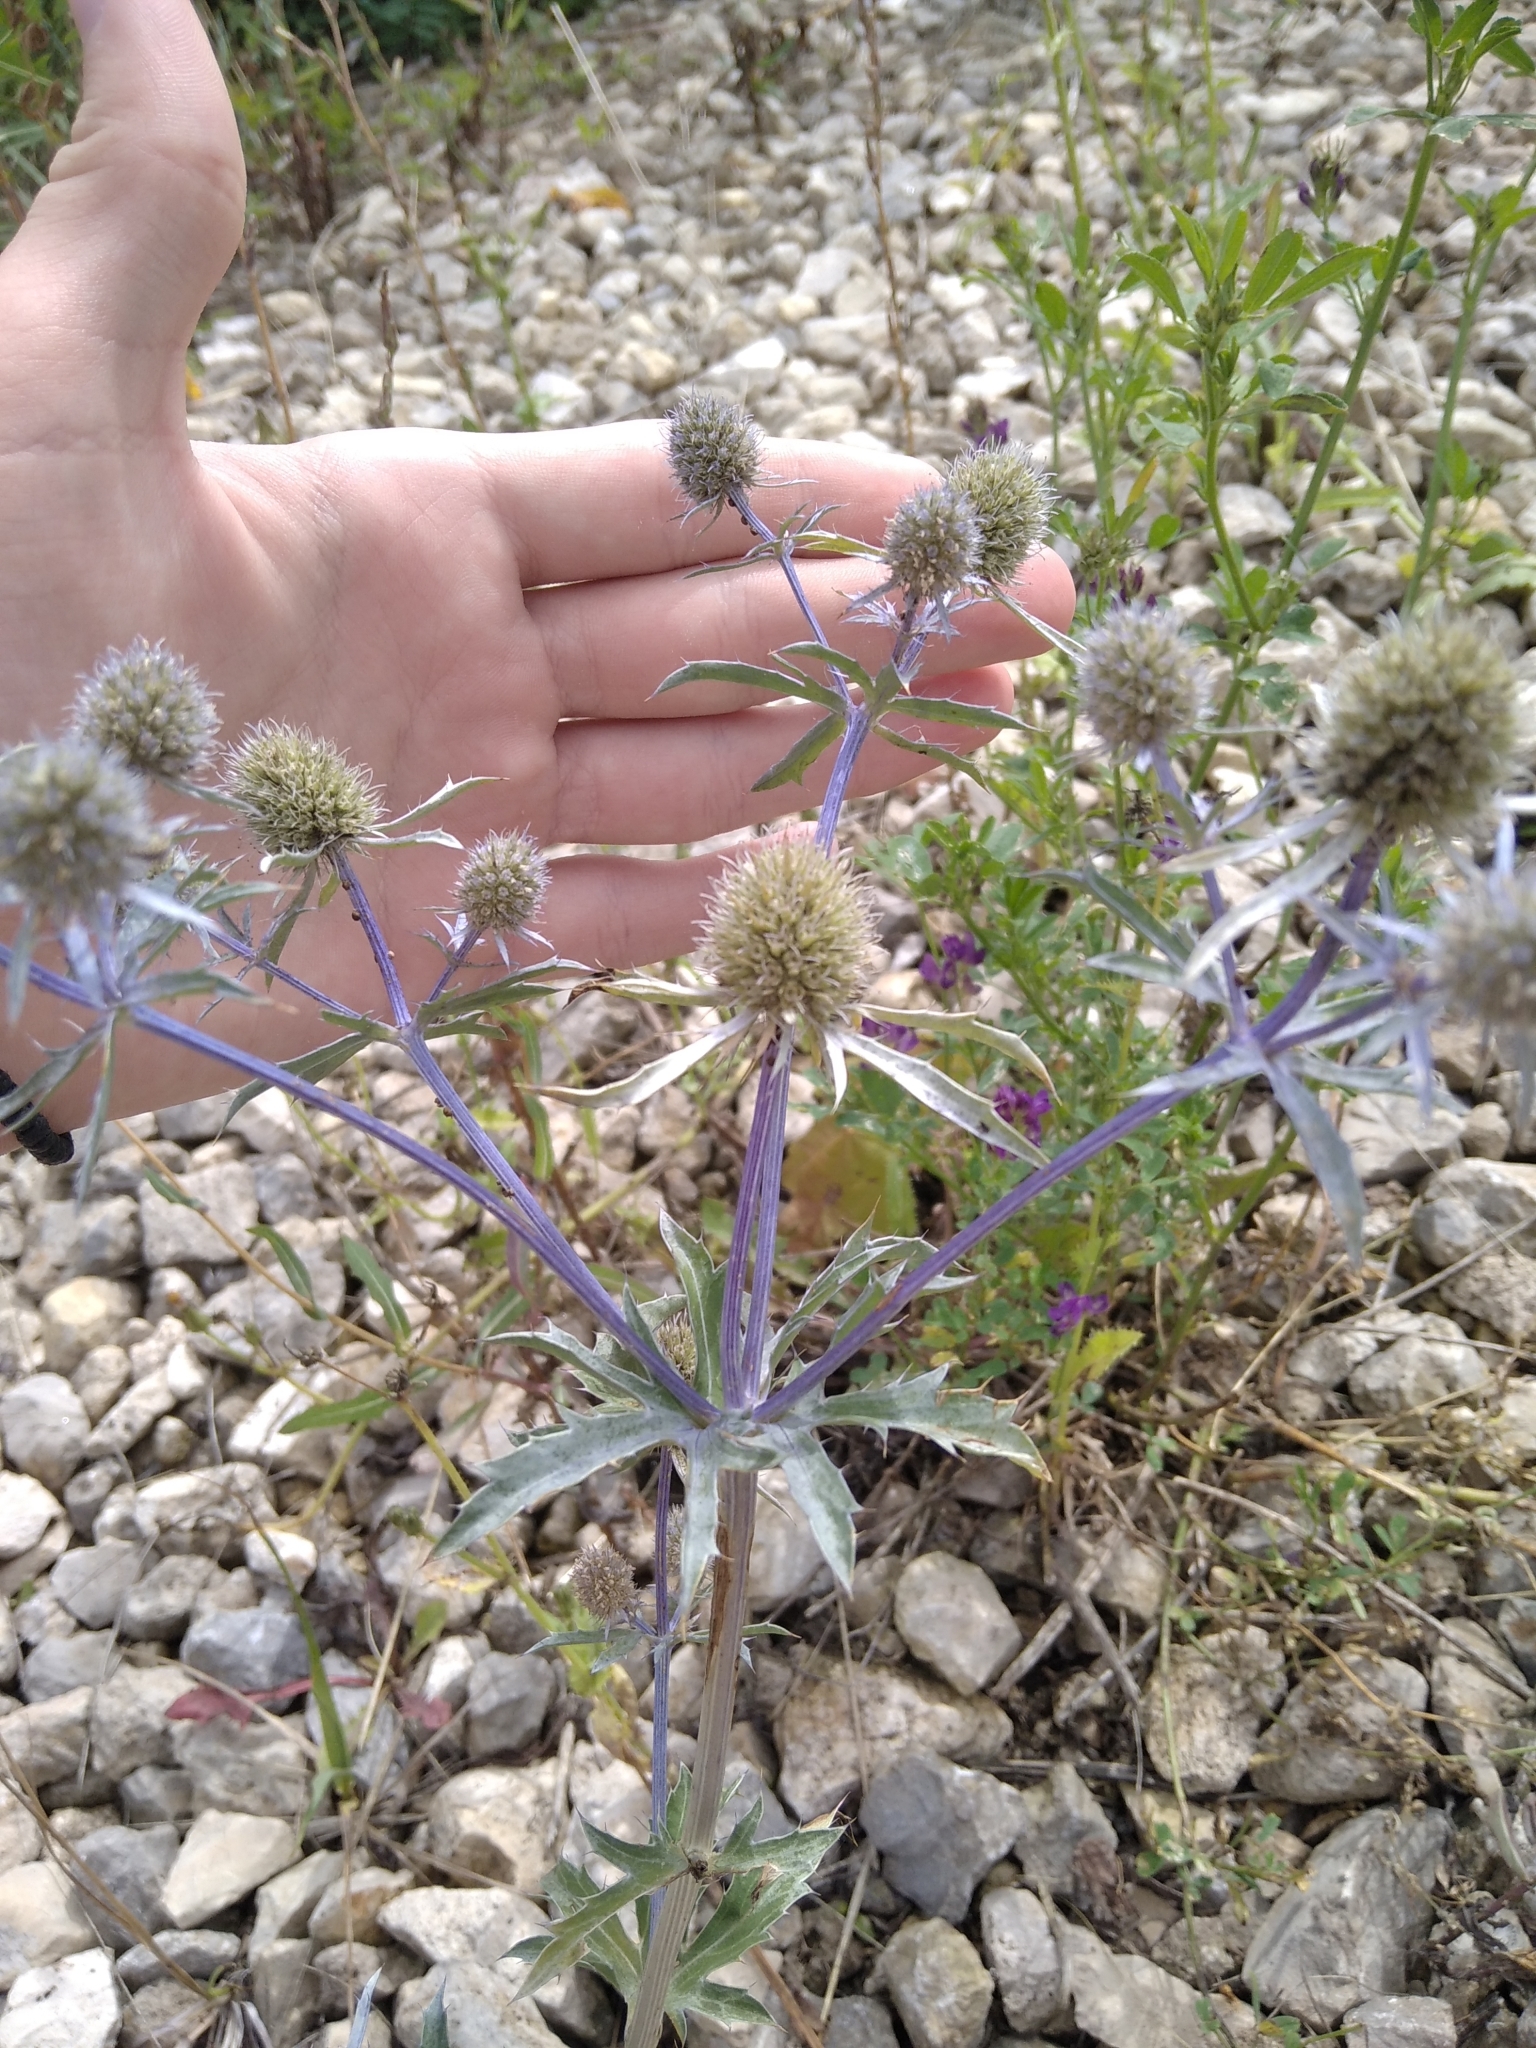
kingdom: Plantae
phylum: Tracheophyta
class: Magnoliopsida
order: Apiales
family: Apiaceae
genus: Eryngium
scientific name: Eryngium planum
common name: Blue eryngo
